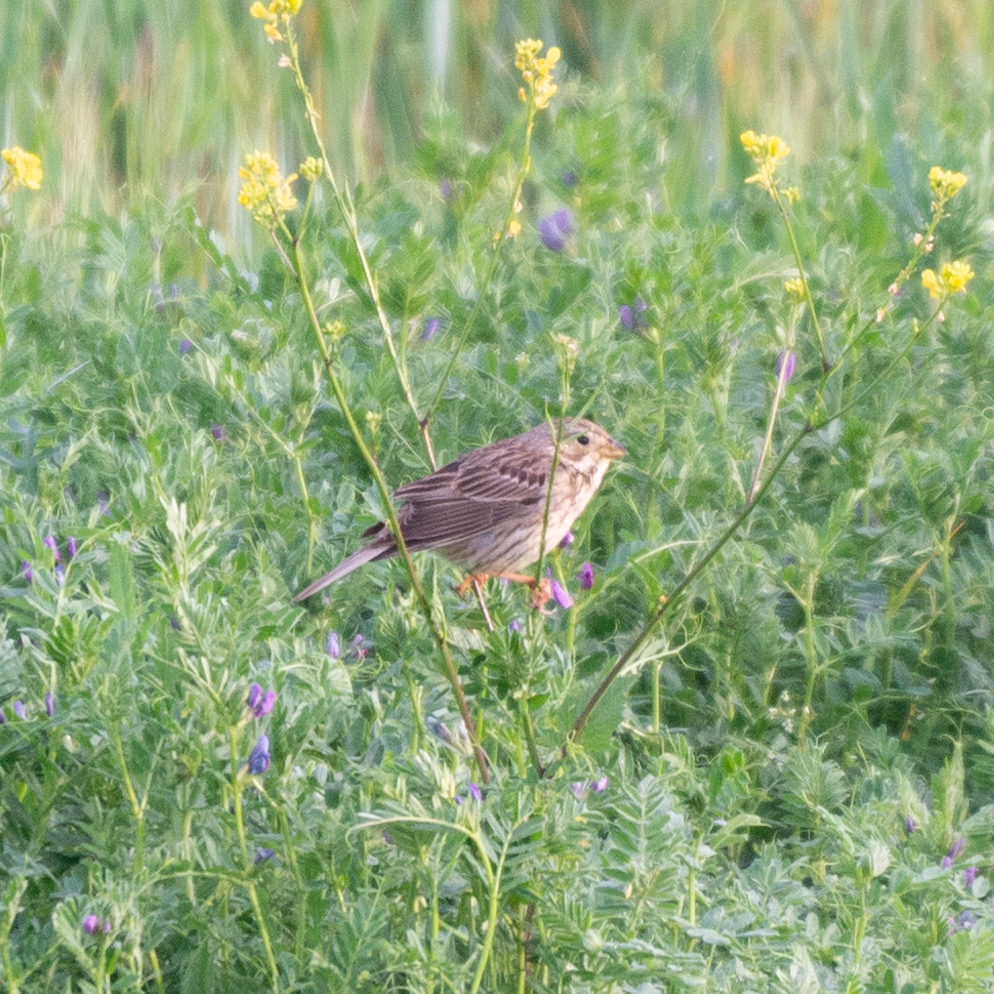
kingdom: Animalia
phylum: Chordata
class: Aves
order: Passeriformes
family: Emberizidae
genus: Emberiza
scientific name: Emberiza calandra
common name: Corn bunting
